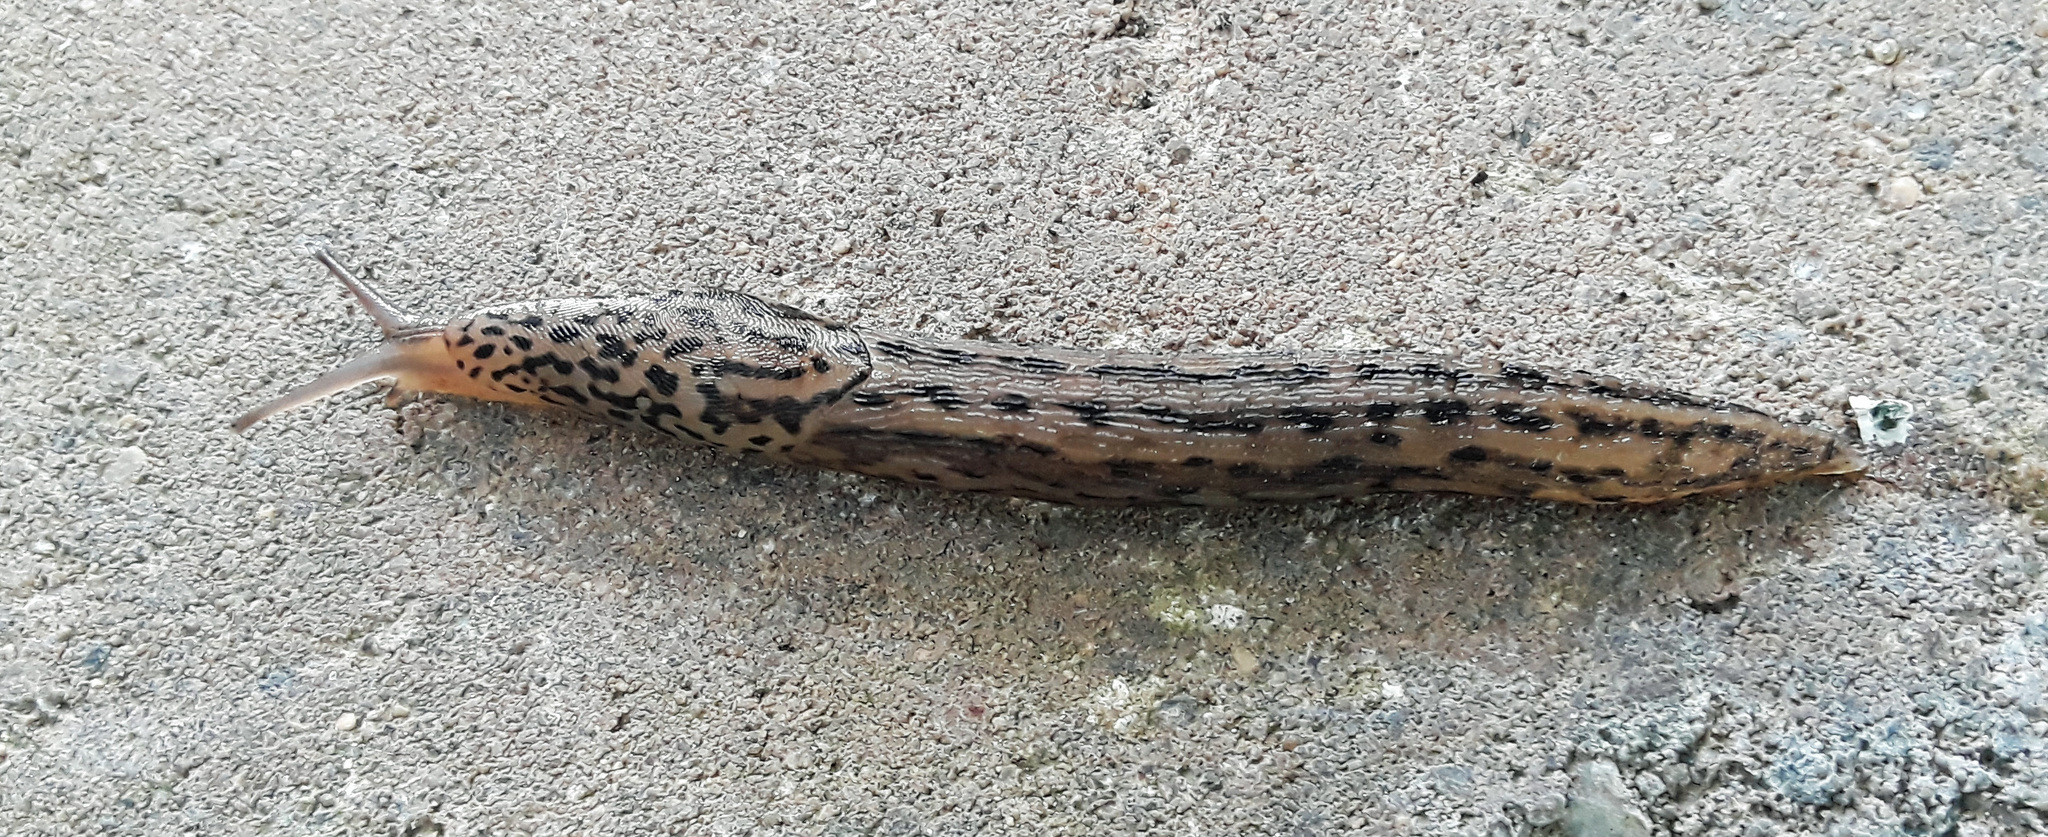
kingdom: Animalia
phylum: Mollusca
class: Gastropoda
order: Stylommatophora
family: Limacidae
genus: Limax
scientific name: Limax maximus
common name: Great grey slug
